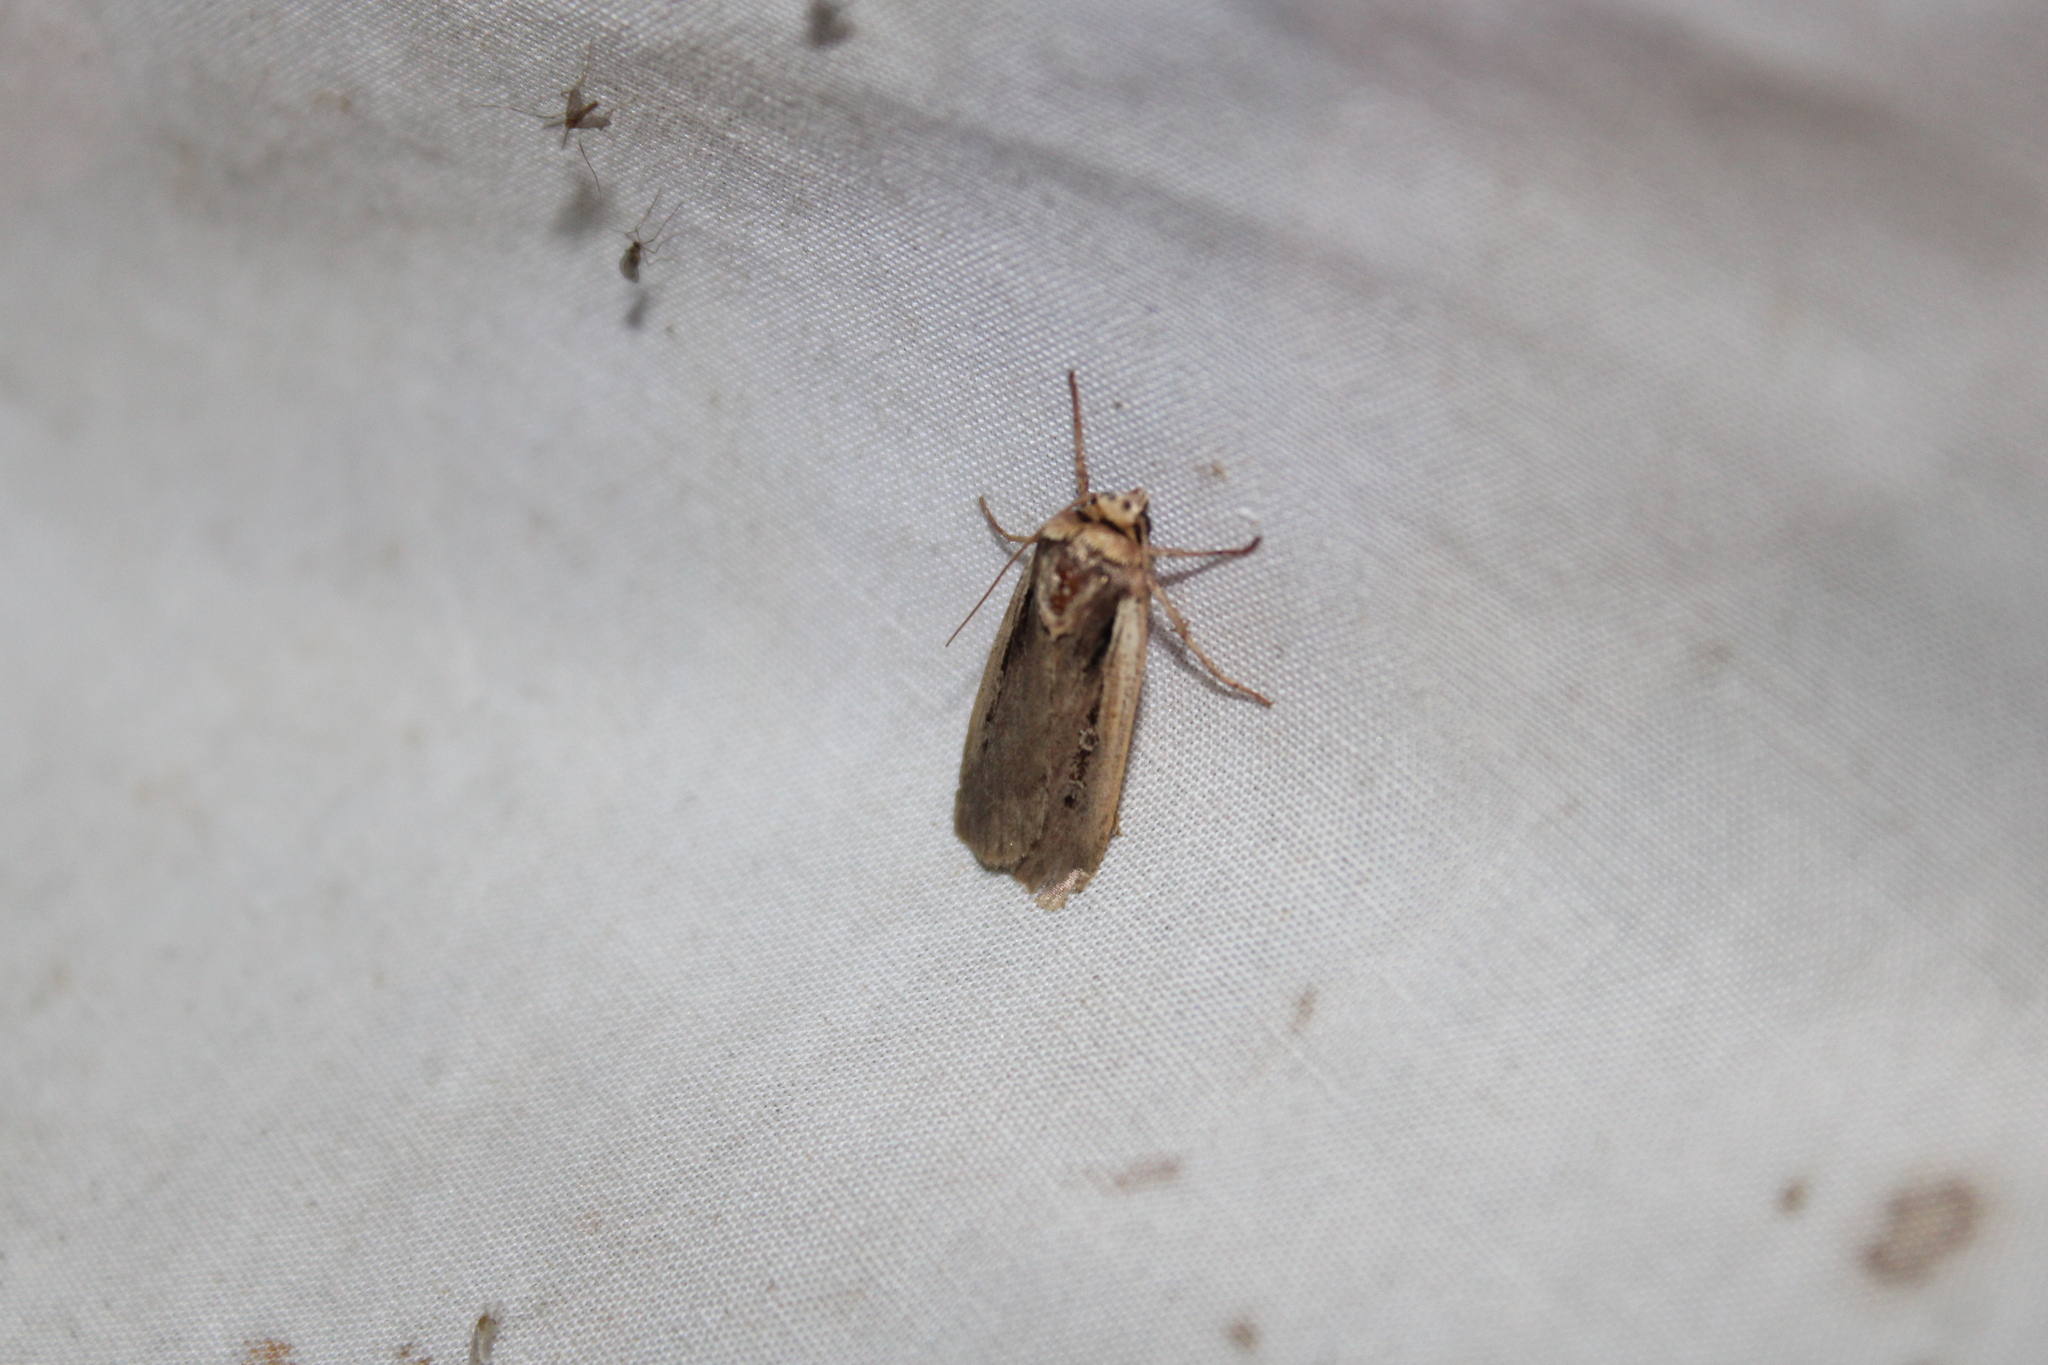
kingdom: Animalia
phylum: Arthropoda
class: Insecta
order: Lepidoptera
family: Noctuidae
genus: Ochropleura
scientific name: Ochropleura implecta
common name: Flame-shouldered dart
